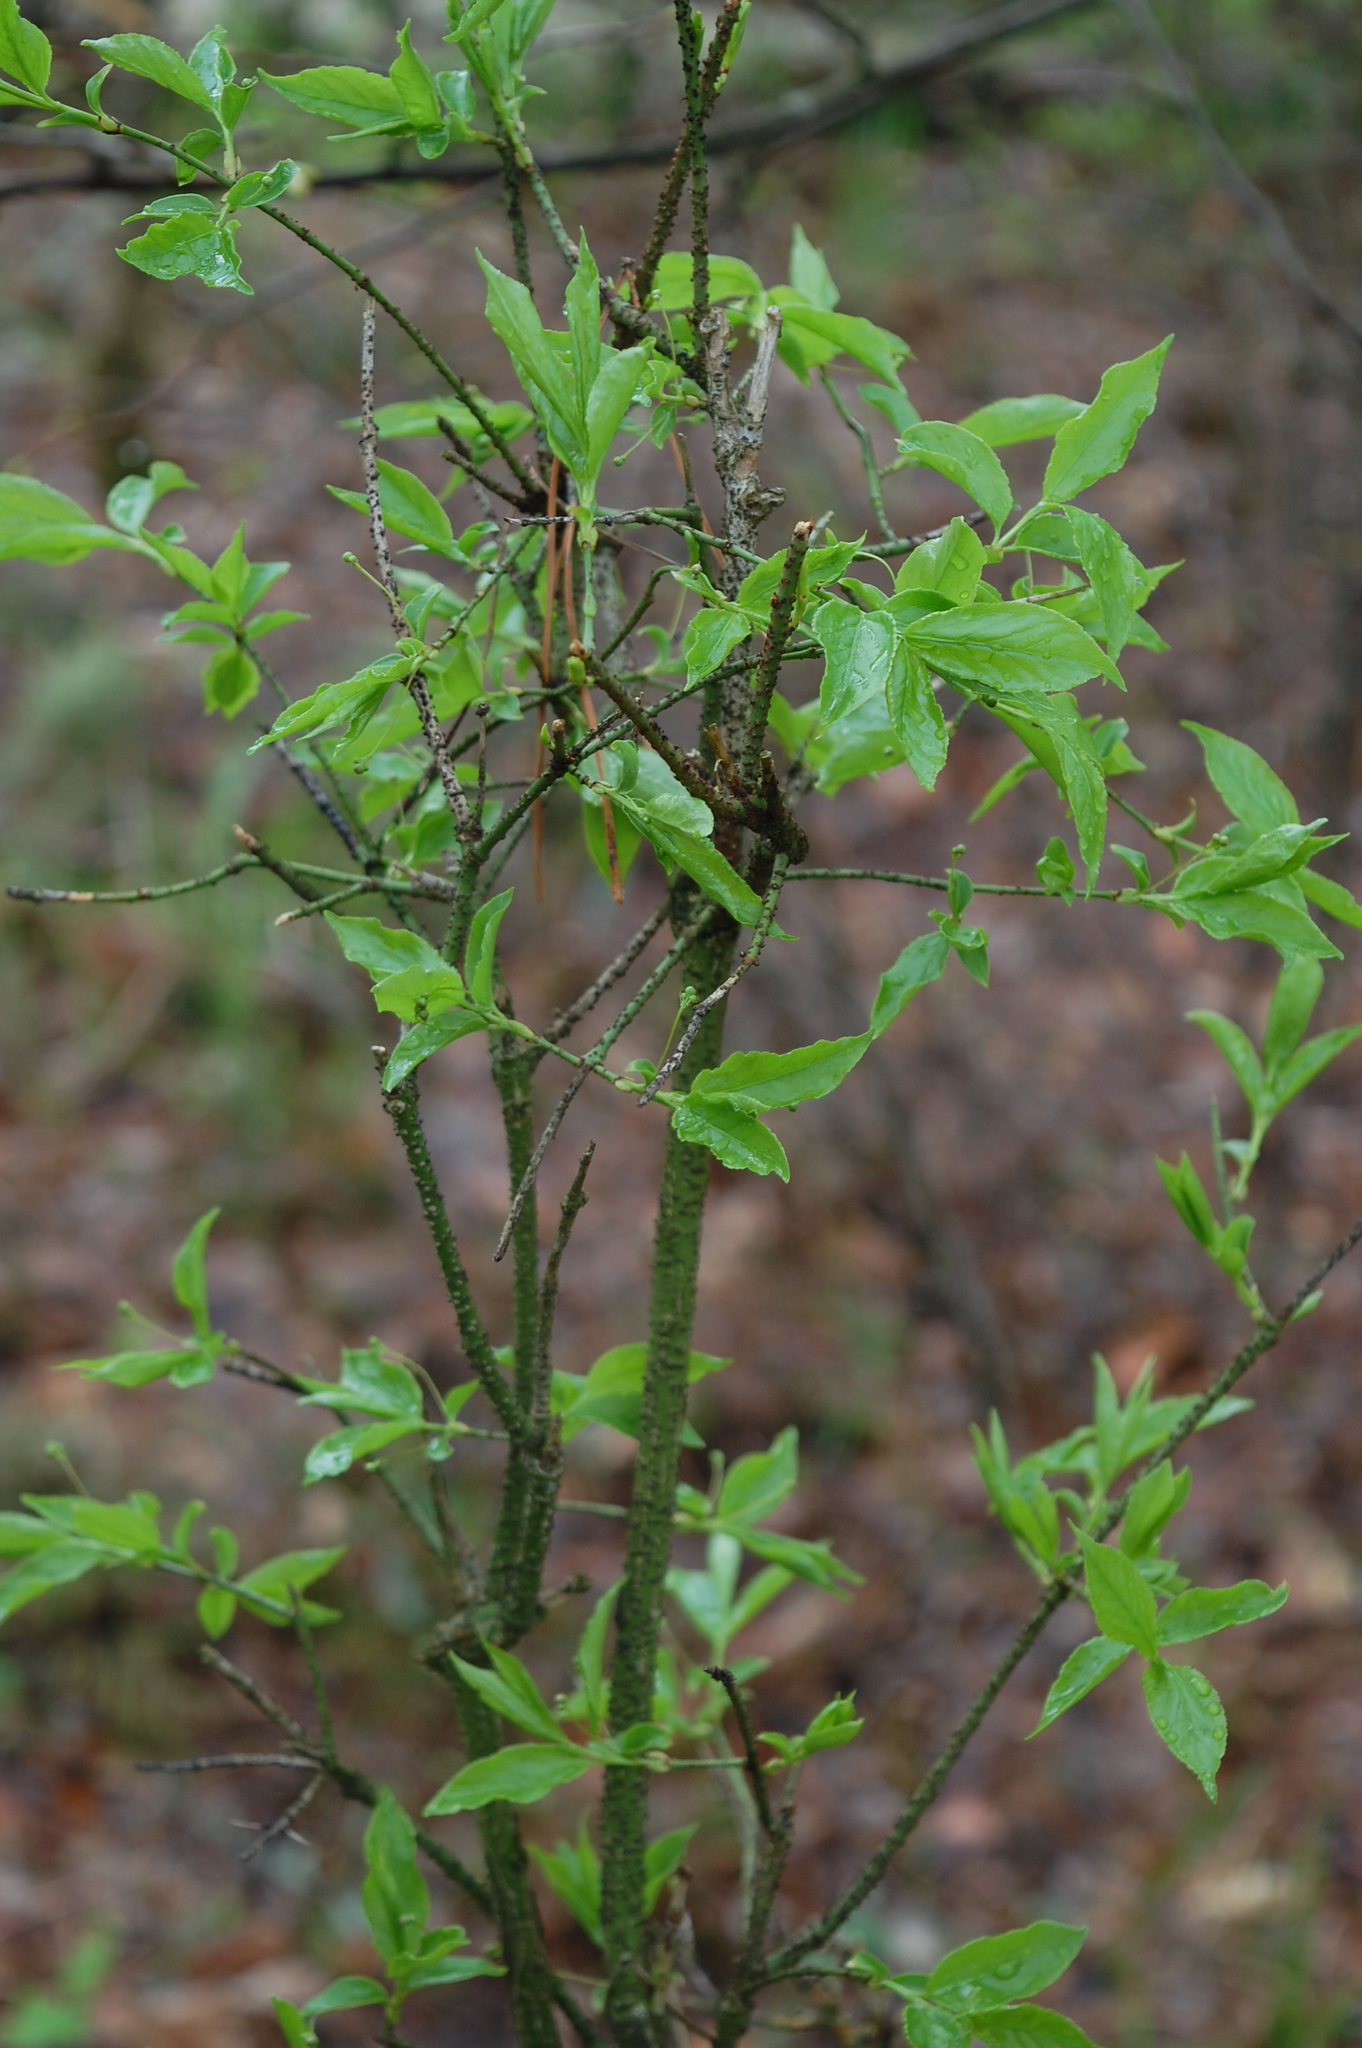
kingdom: Plantae
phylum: Tracheophyta
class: Magnoliopsida
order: Celastrales
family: Celastraceae
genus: Euonymus
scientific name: Euonymus verrucosus
